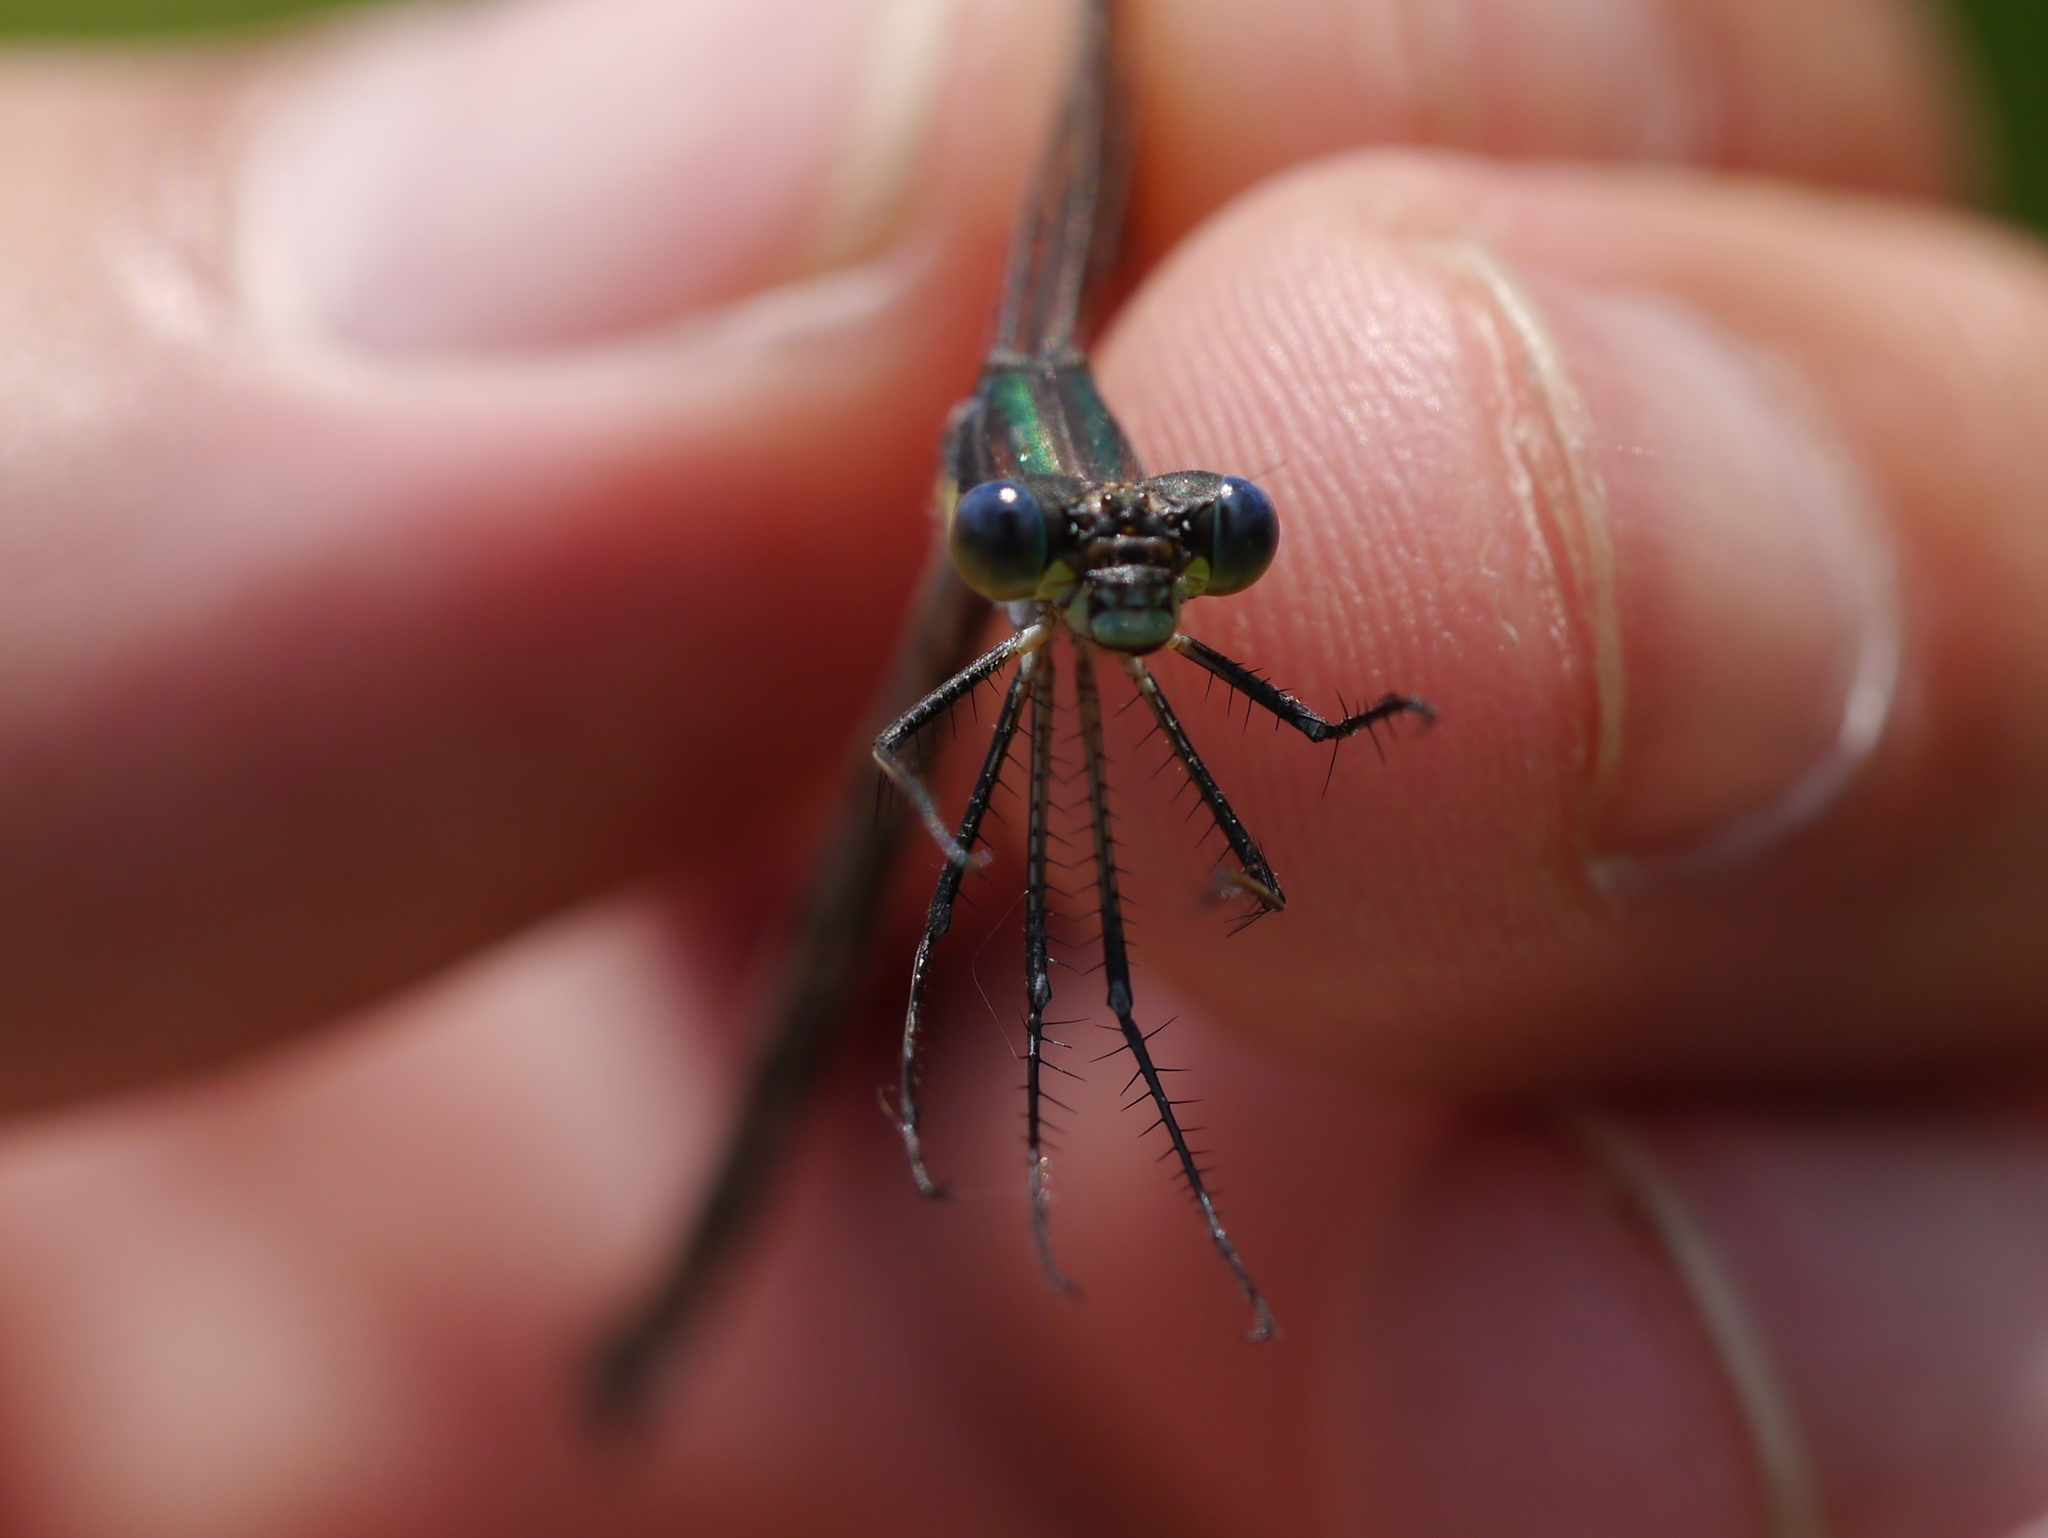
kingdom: Animalia
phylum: Arthropoda
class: Insecta
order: Odonata
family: Lestidae
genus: Lestes
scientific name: Lestes eurinus
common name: Amber-winged spreadwing
